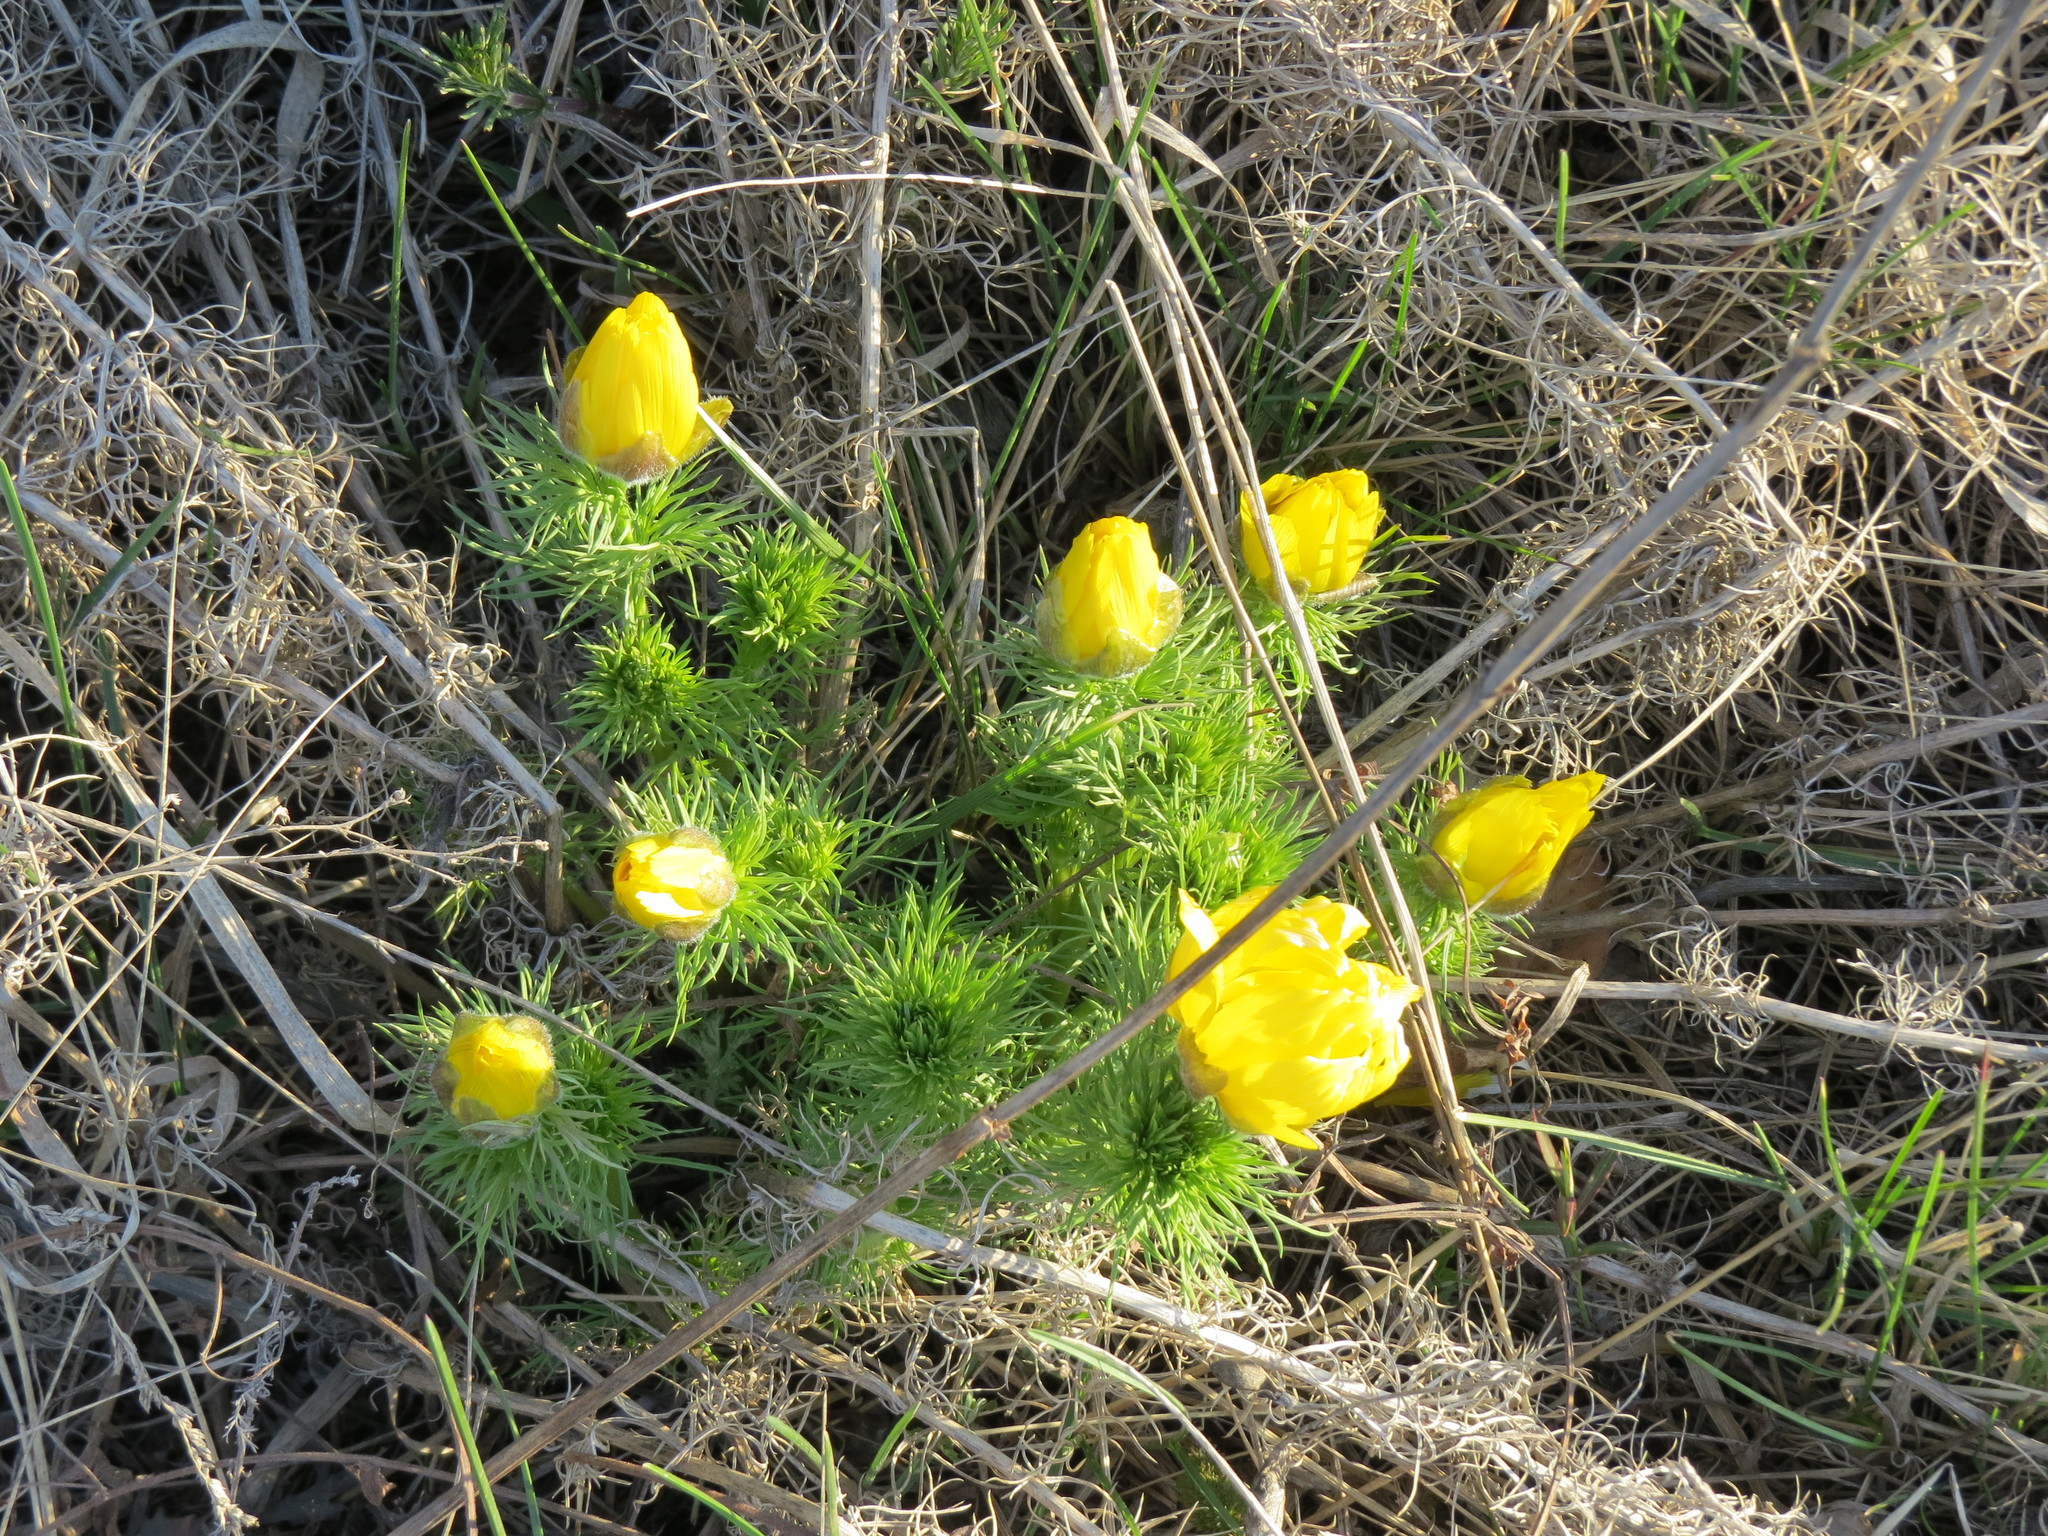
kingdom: Plantae
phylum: Tracheophyta
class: Magnoliopsida
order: Ranunculales
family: Ranunculaceae
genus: Adonis
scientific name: Adonis vernalis
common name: Yellow pheasants-eye
